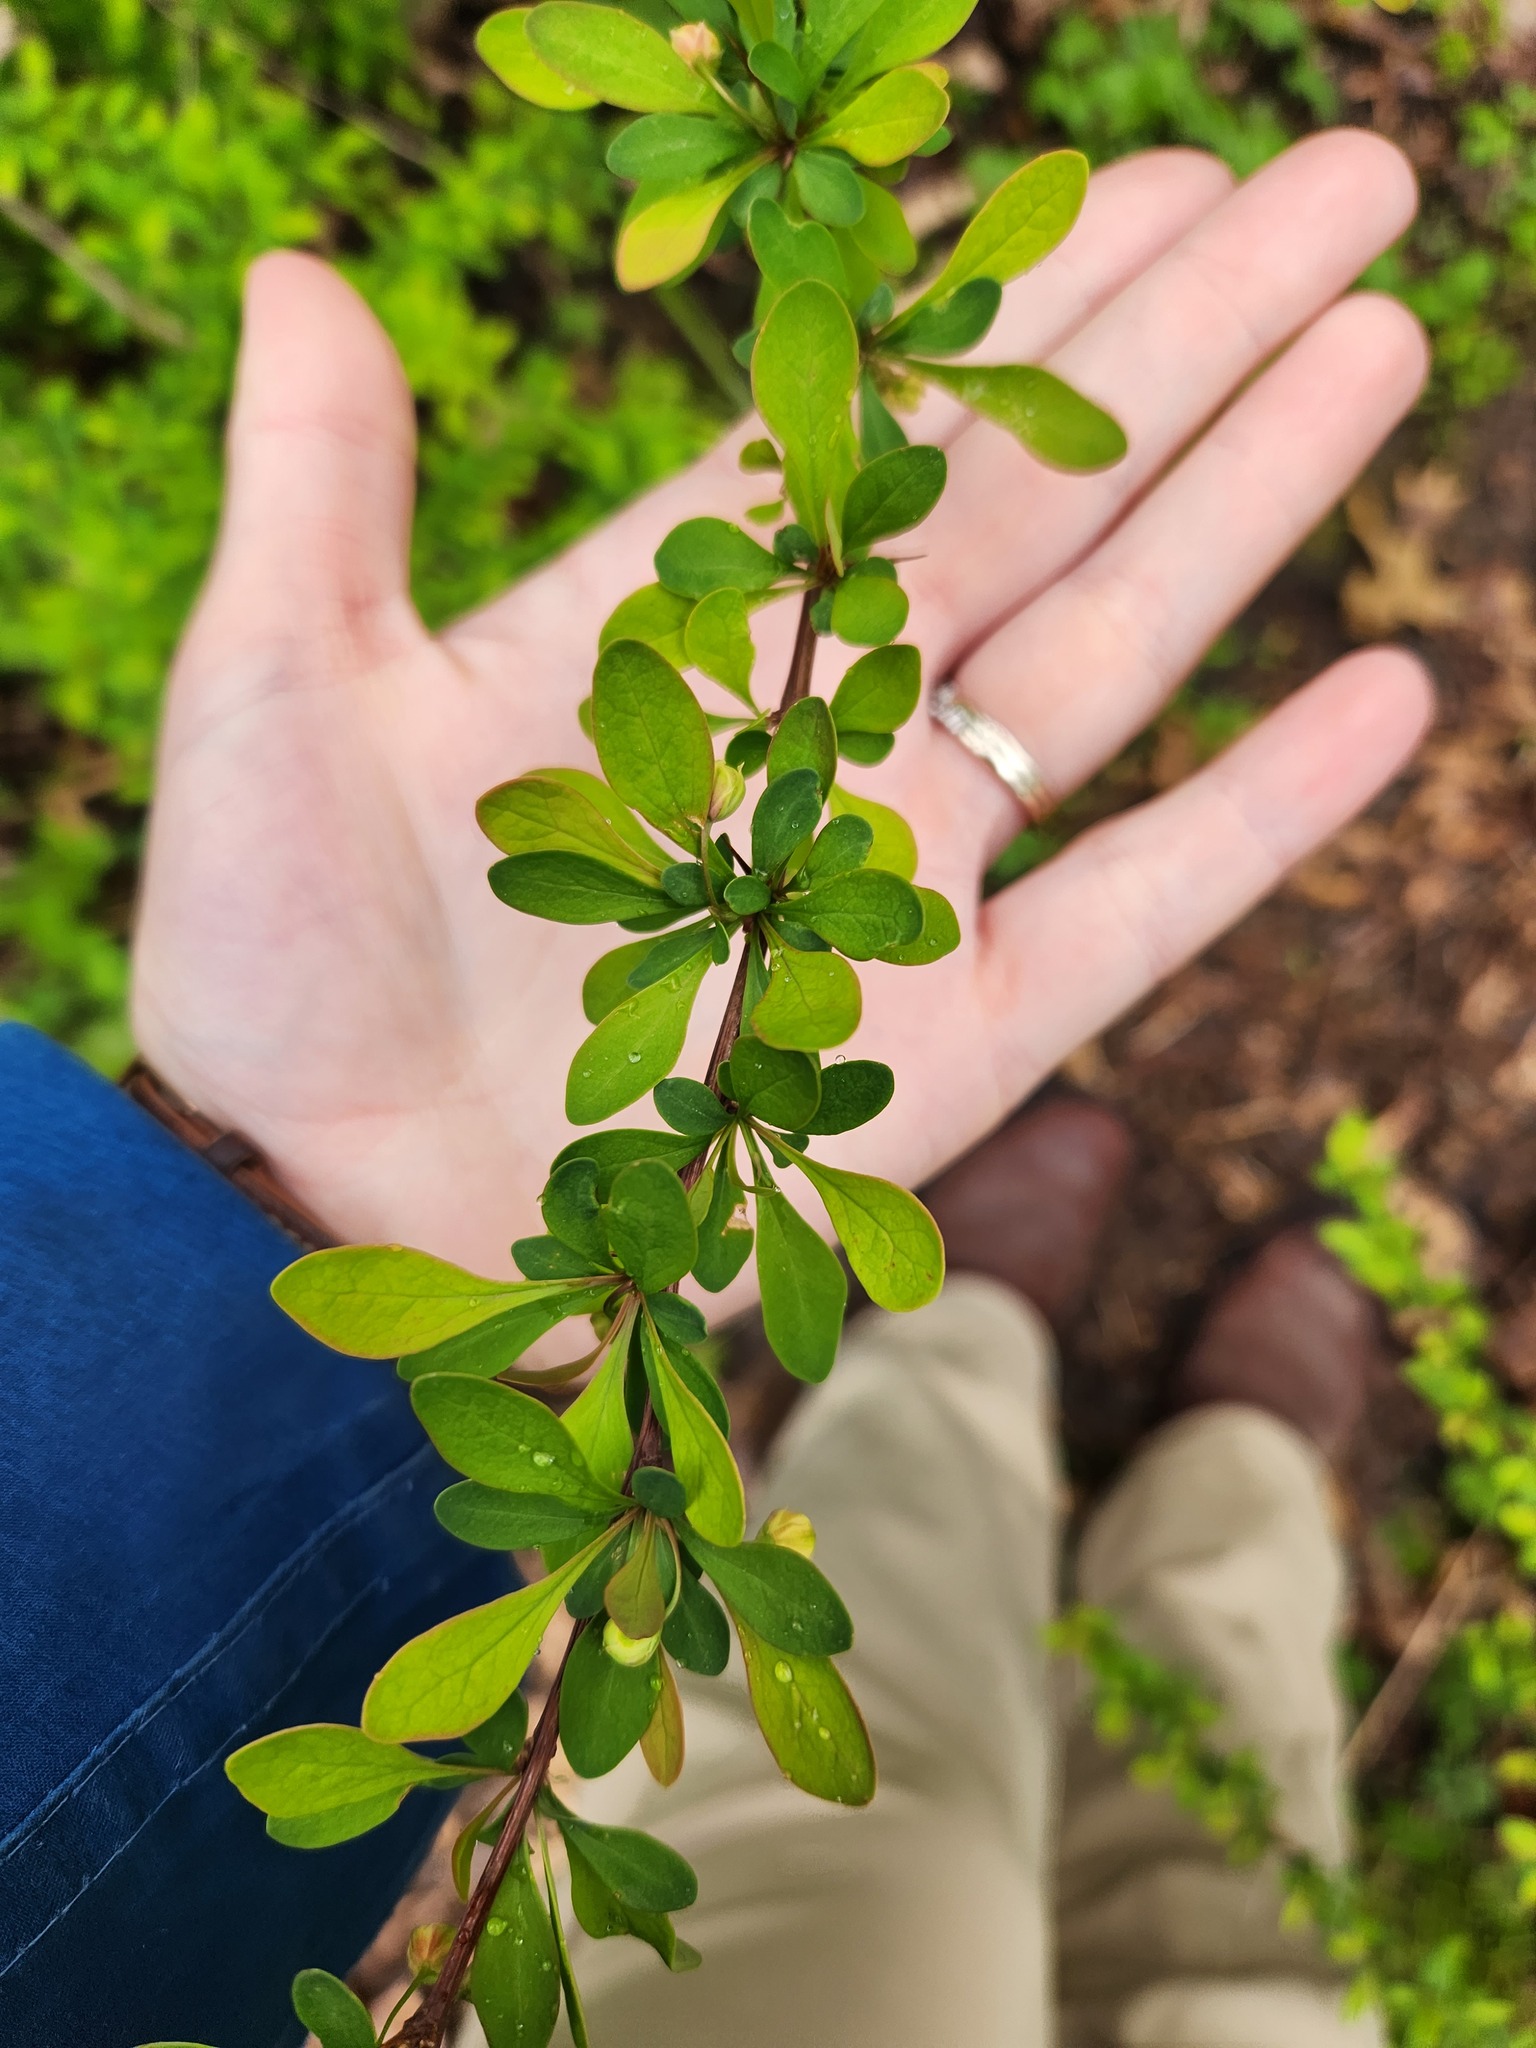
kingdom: Plantae
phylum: Tracheophyta
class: Magnoliopsida
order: Ranunculales
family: Berberidaceae
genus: Berberis
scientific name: Berberis thunbergii
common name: Japanese barberry
